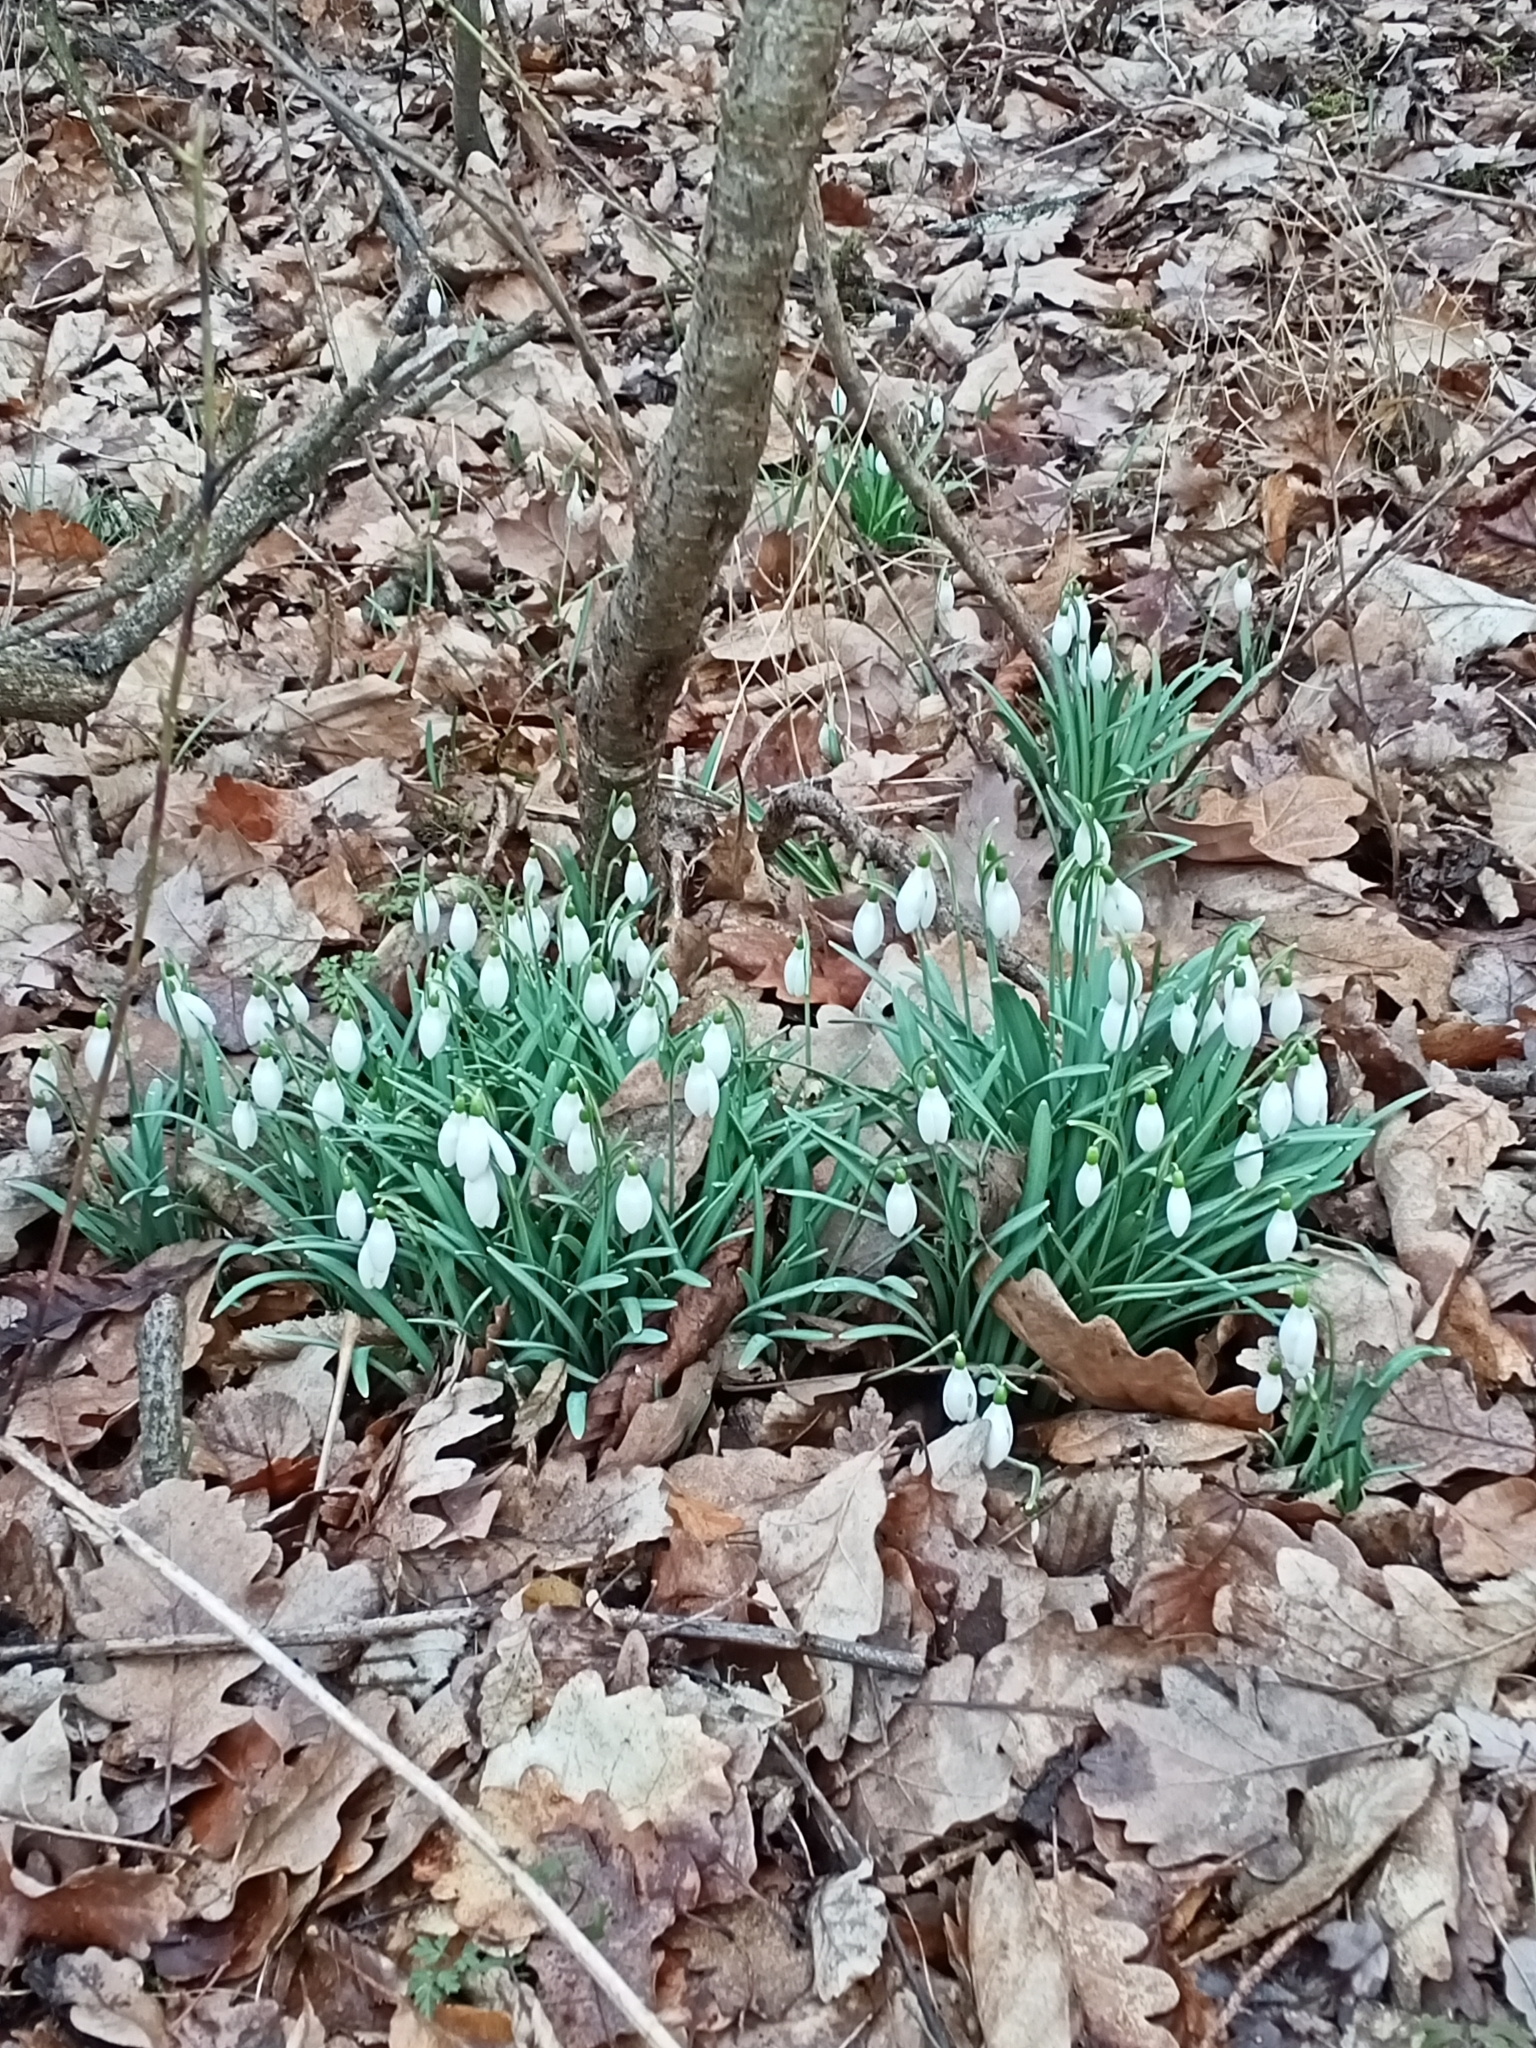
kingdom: Plantae
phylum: Tracheophyta
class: Liliopsida
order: Asparagales
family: Amaryllidaceae
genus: Galanthus
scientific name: Galanthus nivalis
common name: Snowdrop
